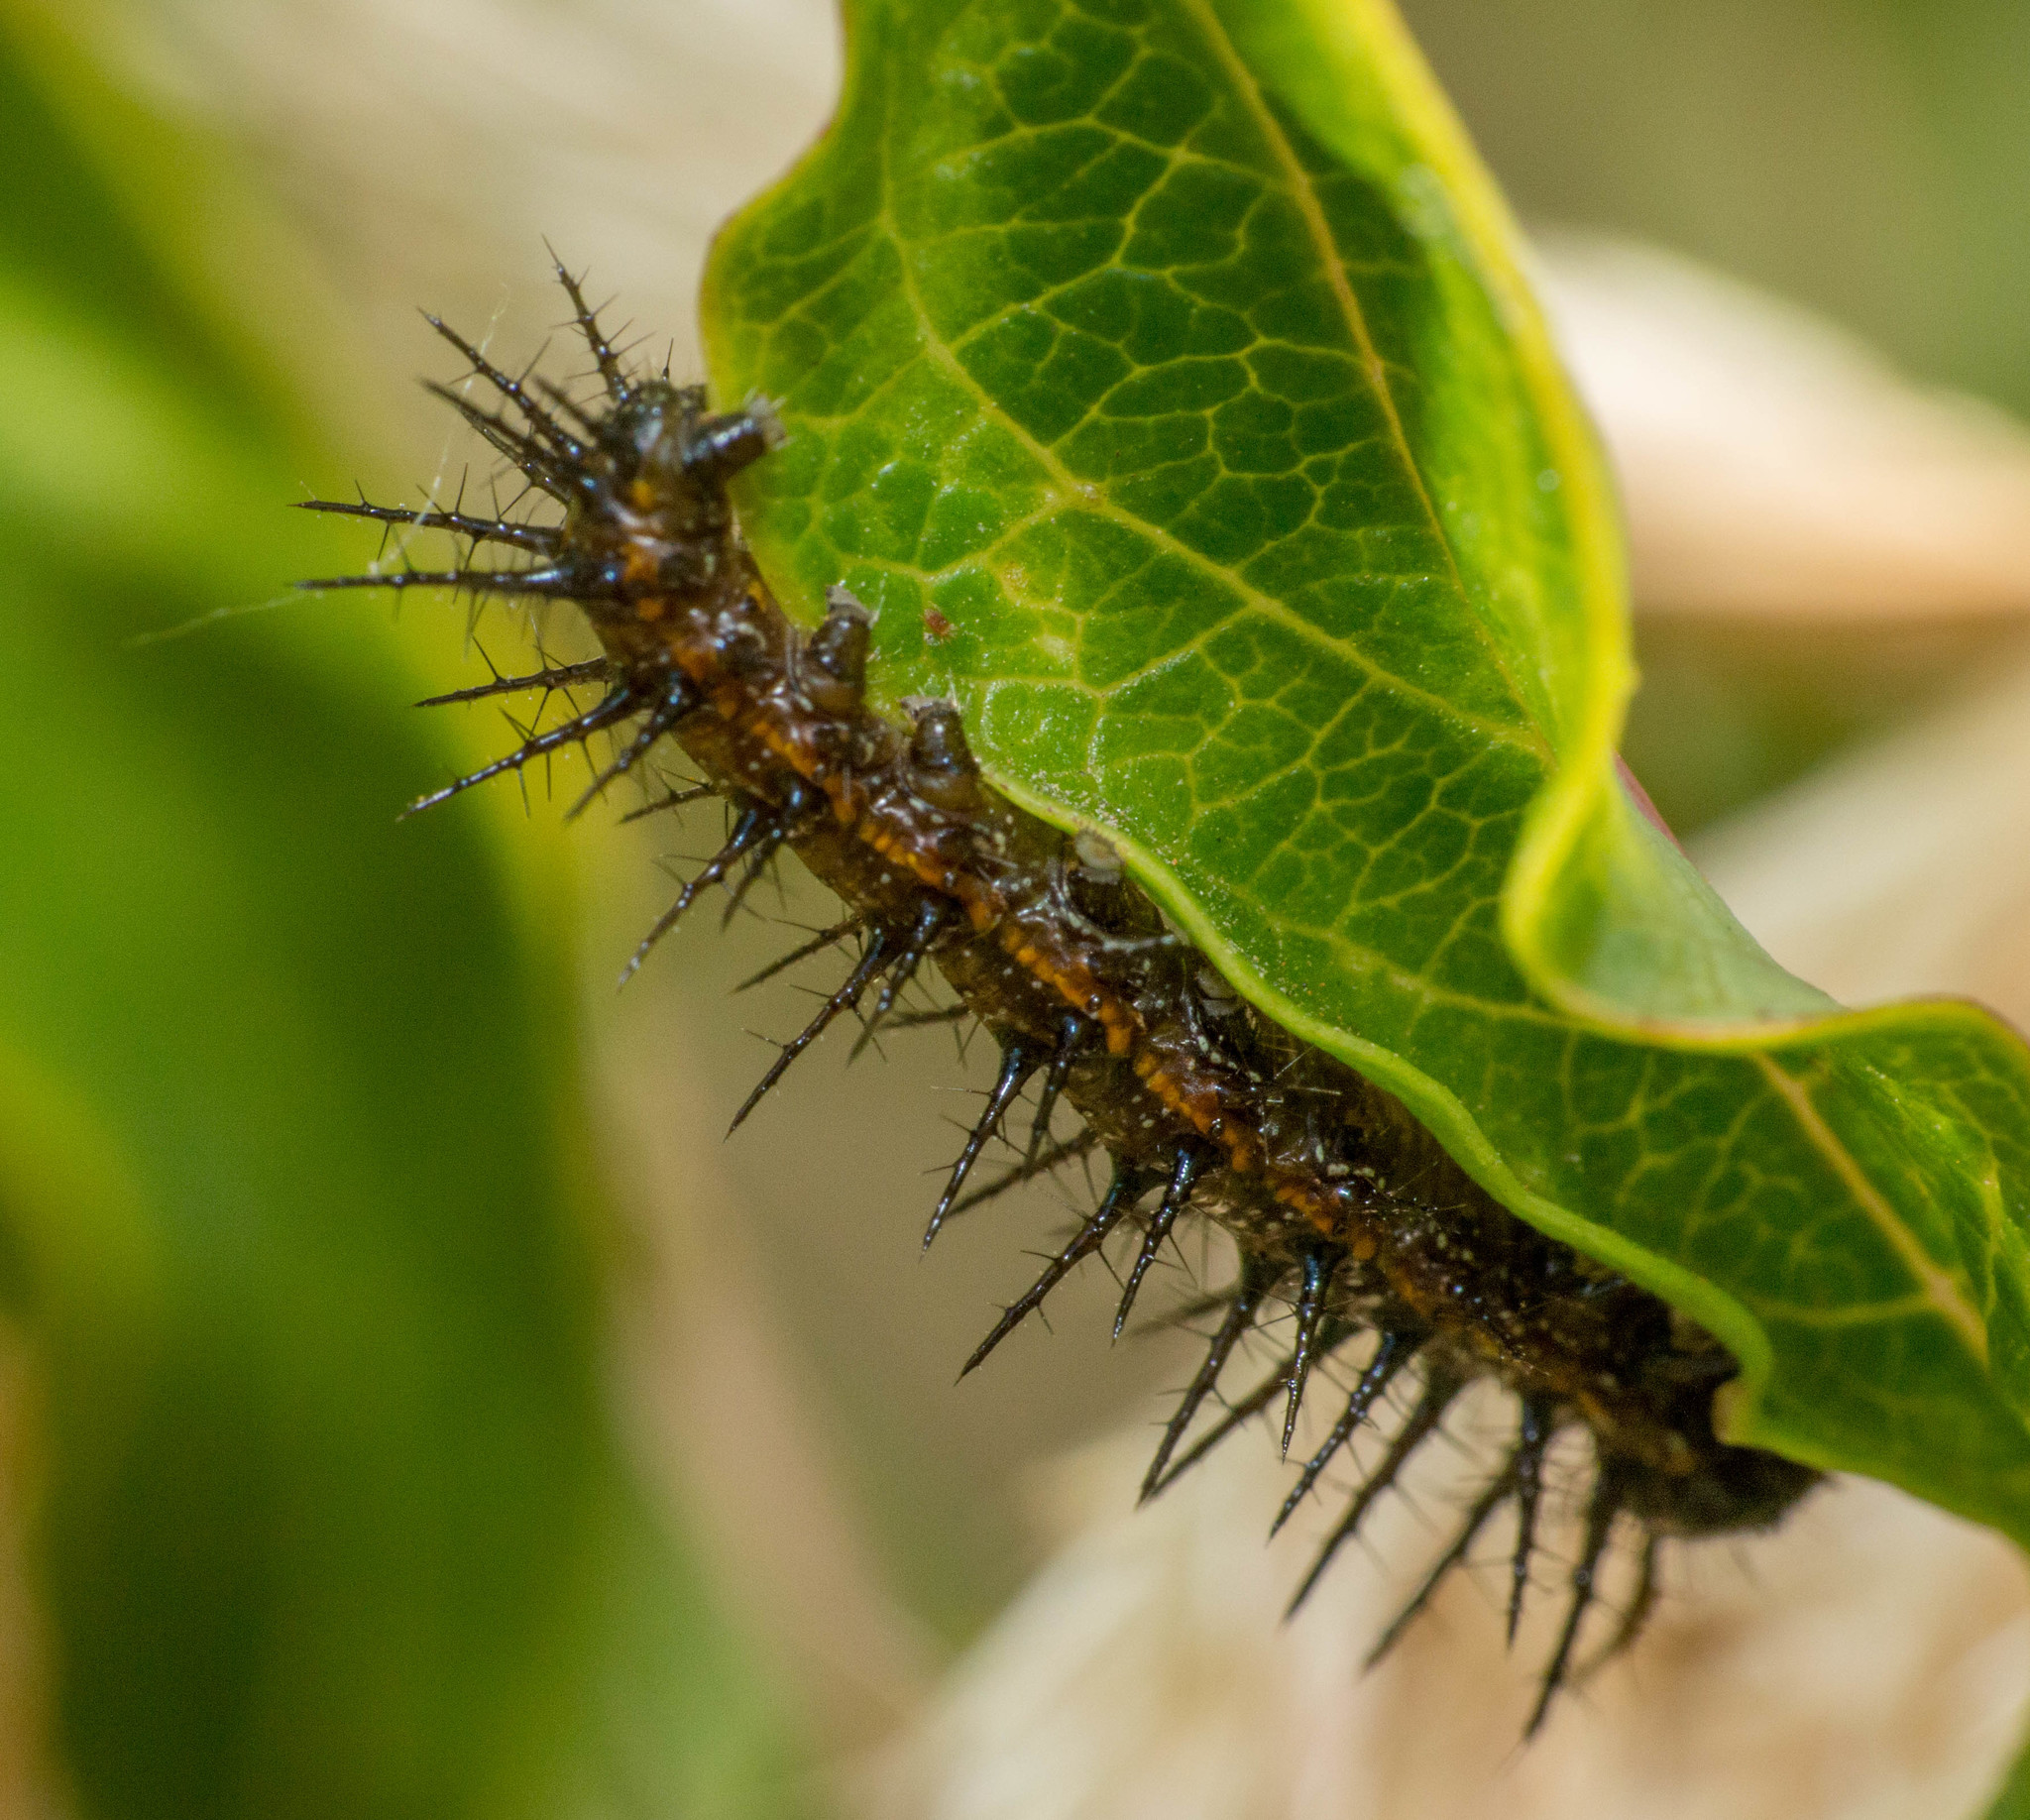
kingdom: Animalia
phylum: Arthropoda
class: Insecta
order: Lepidoptera
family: Nymphalidae
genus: Dione
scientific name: Dione vanillae
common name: Gulf fritillary
